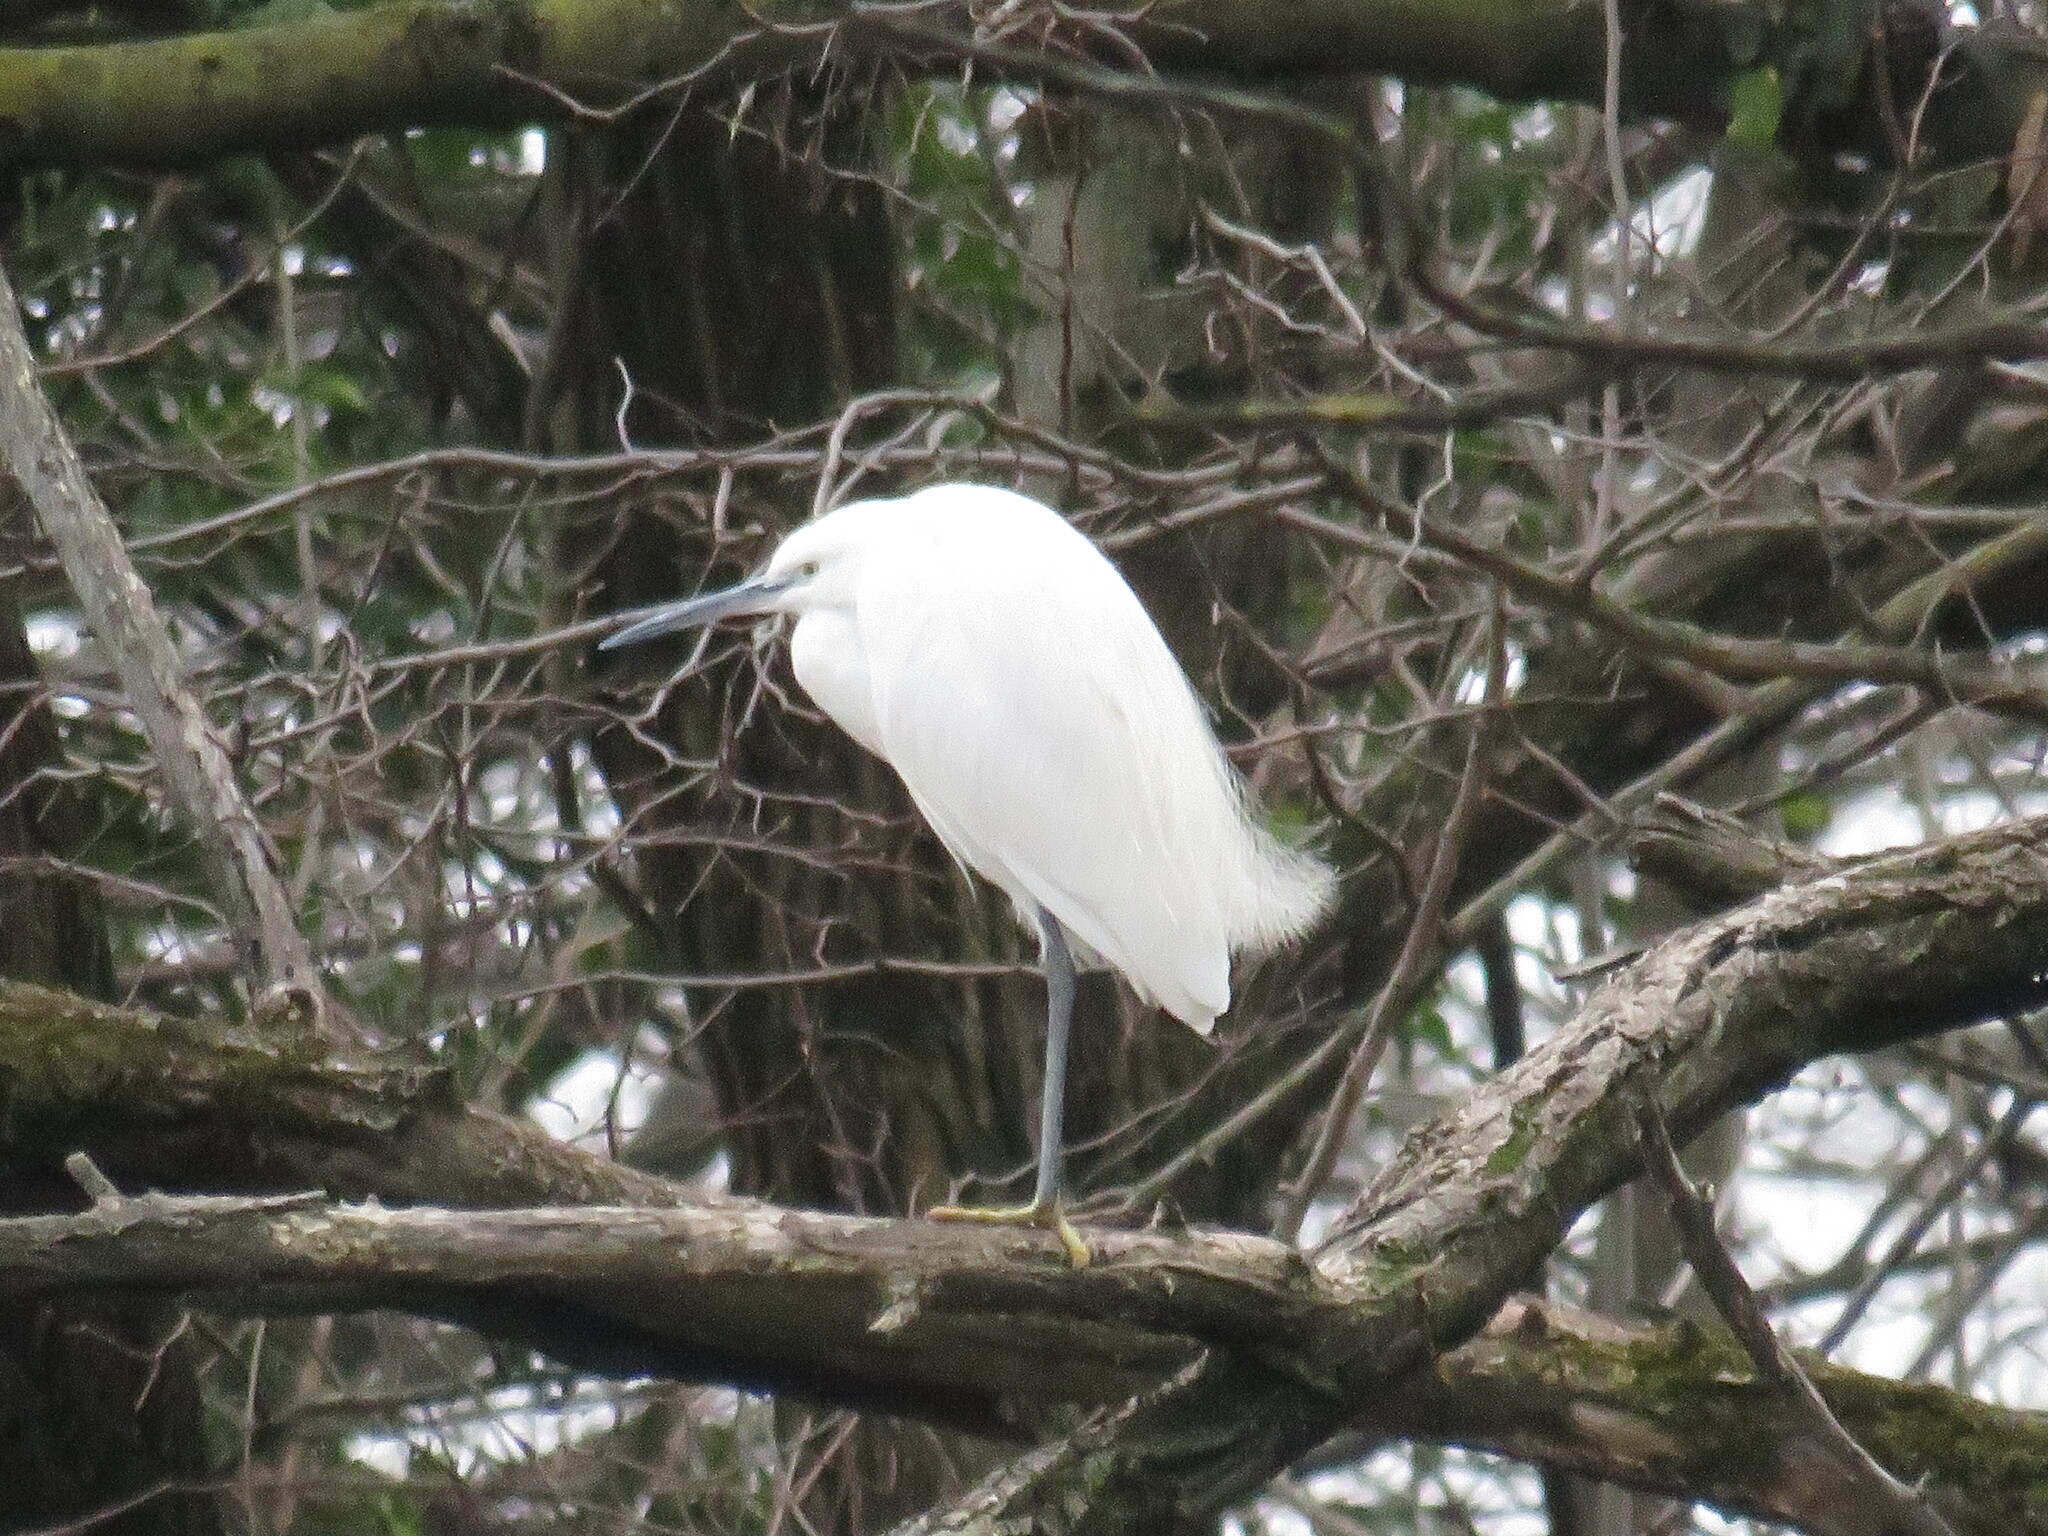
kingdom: Animalia
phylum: Chordata
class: Aves
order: Pelecaniformes
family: Ardeidae
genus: Egretta
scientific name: Egretta garzetta
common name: Little egret
